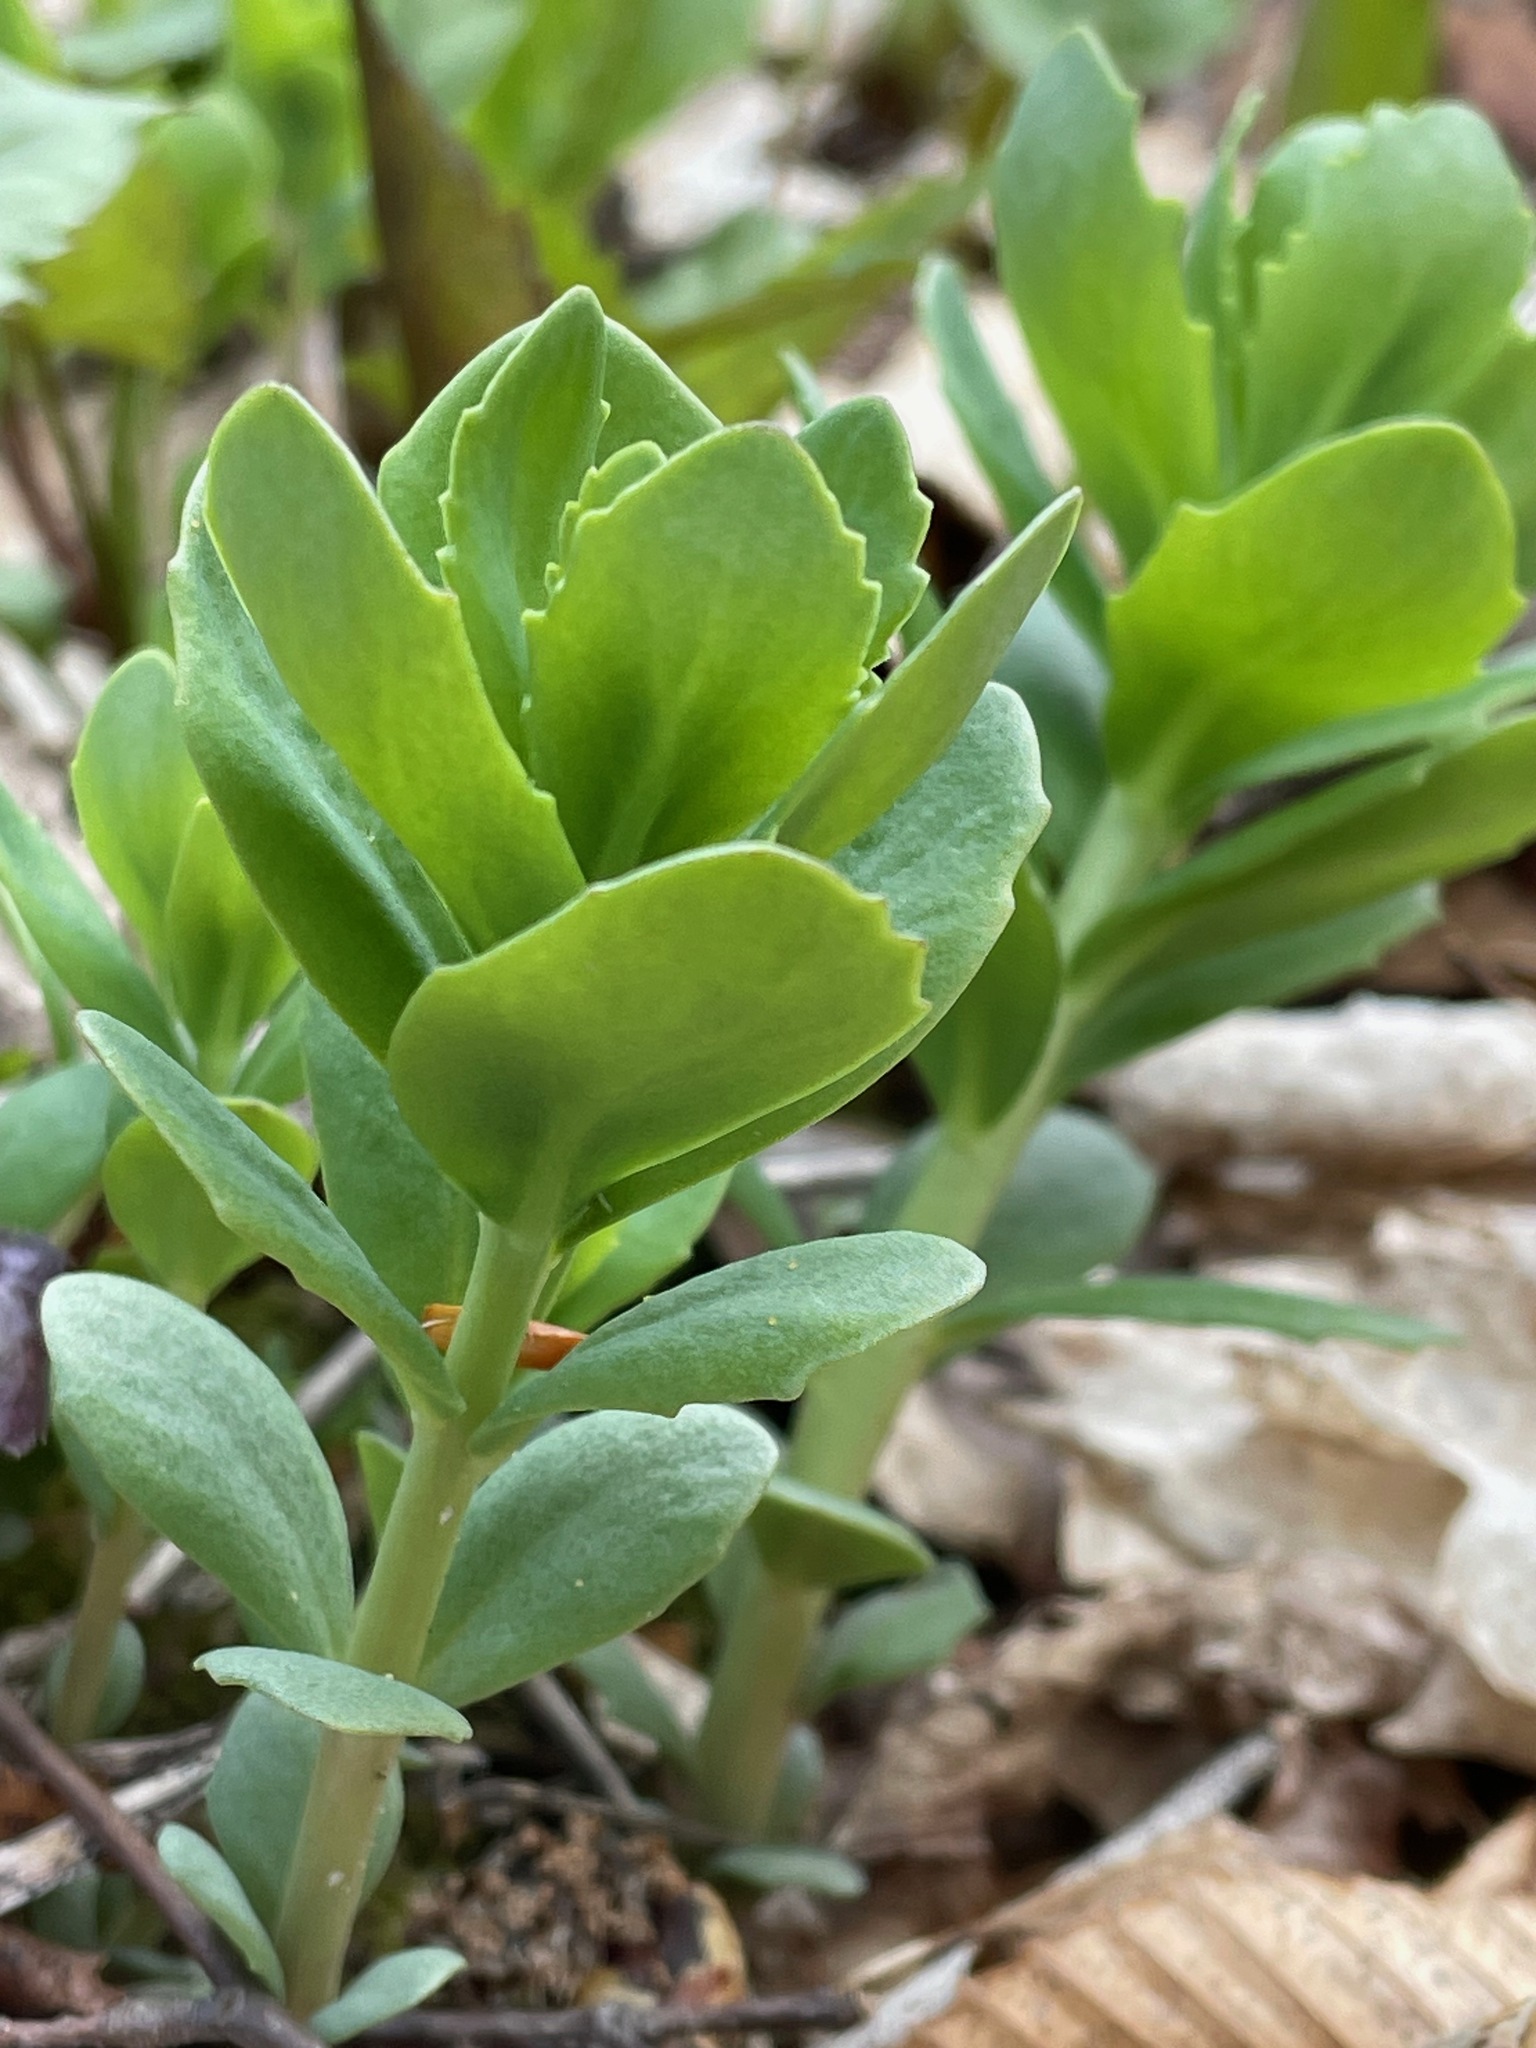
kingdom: Plantae
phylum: Tracheophyta
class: Magnoliopsida
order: Saxifragales
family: Crassulaceae
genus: Hylotelephium
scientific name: Hylotelephium telephium
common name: Live-forever
